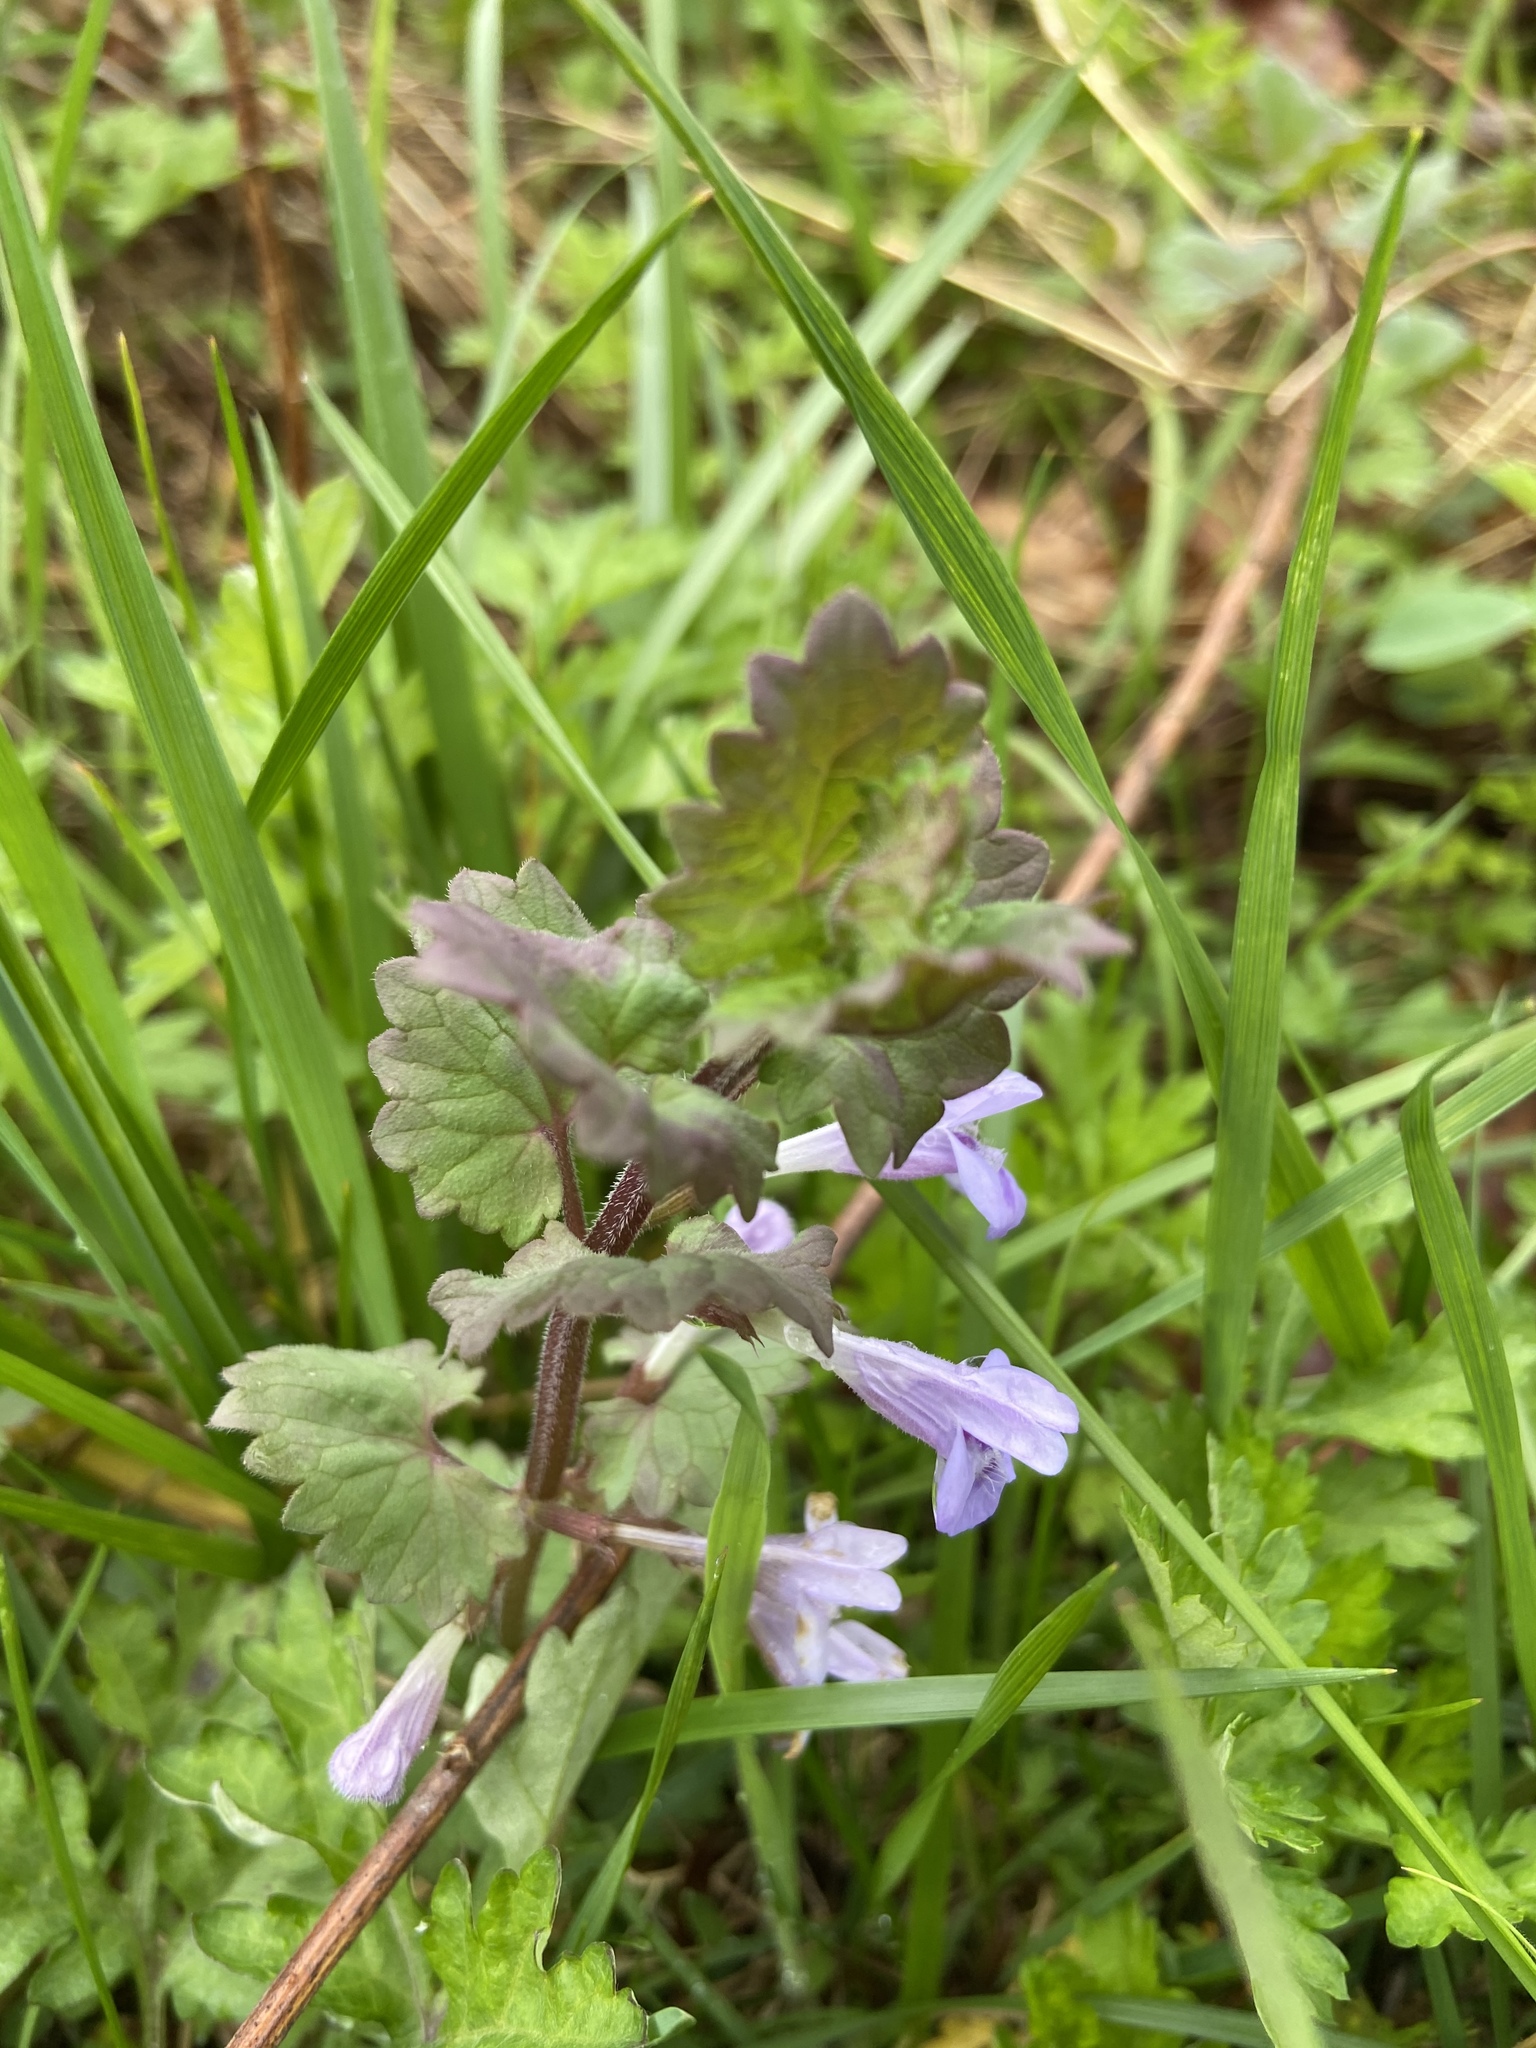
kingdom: Plantae
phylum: Tracheophyta
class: Magnoliopsida
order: Lamiales
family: Lamiaceae
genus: Glechoma
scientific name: Glechoma hederacea
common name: Ground ivy
